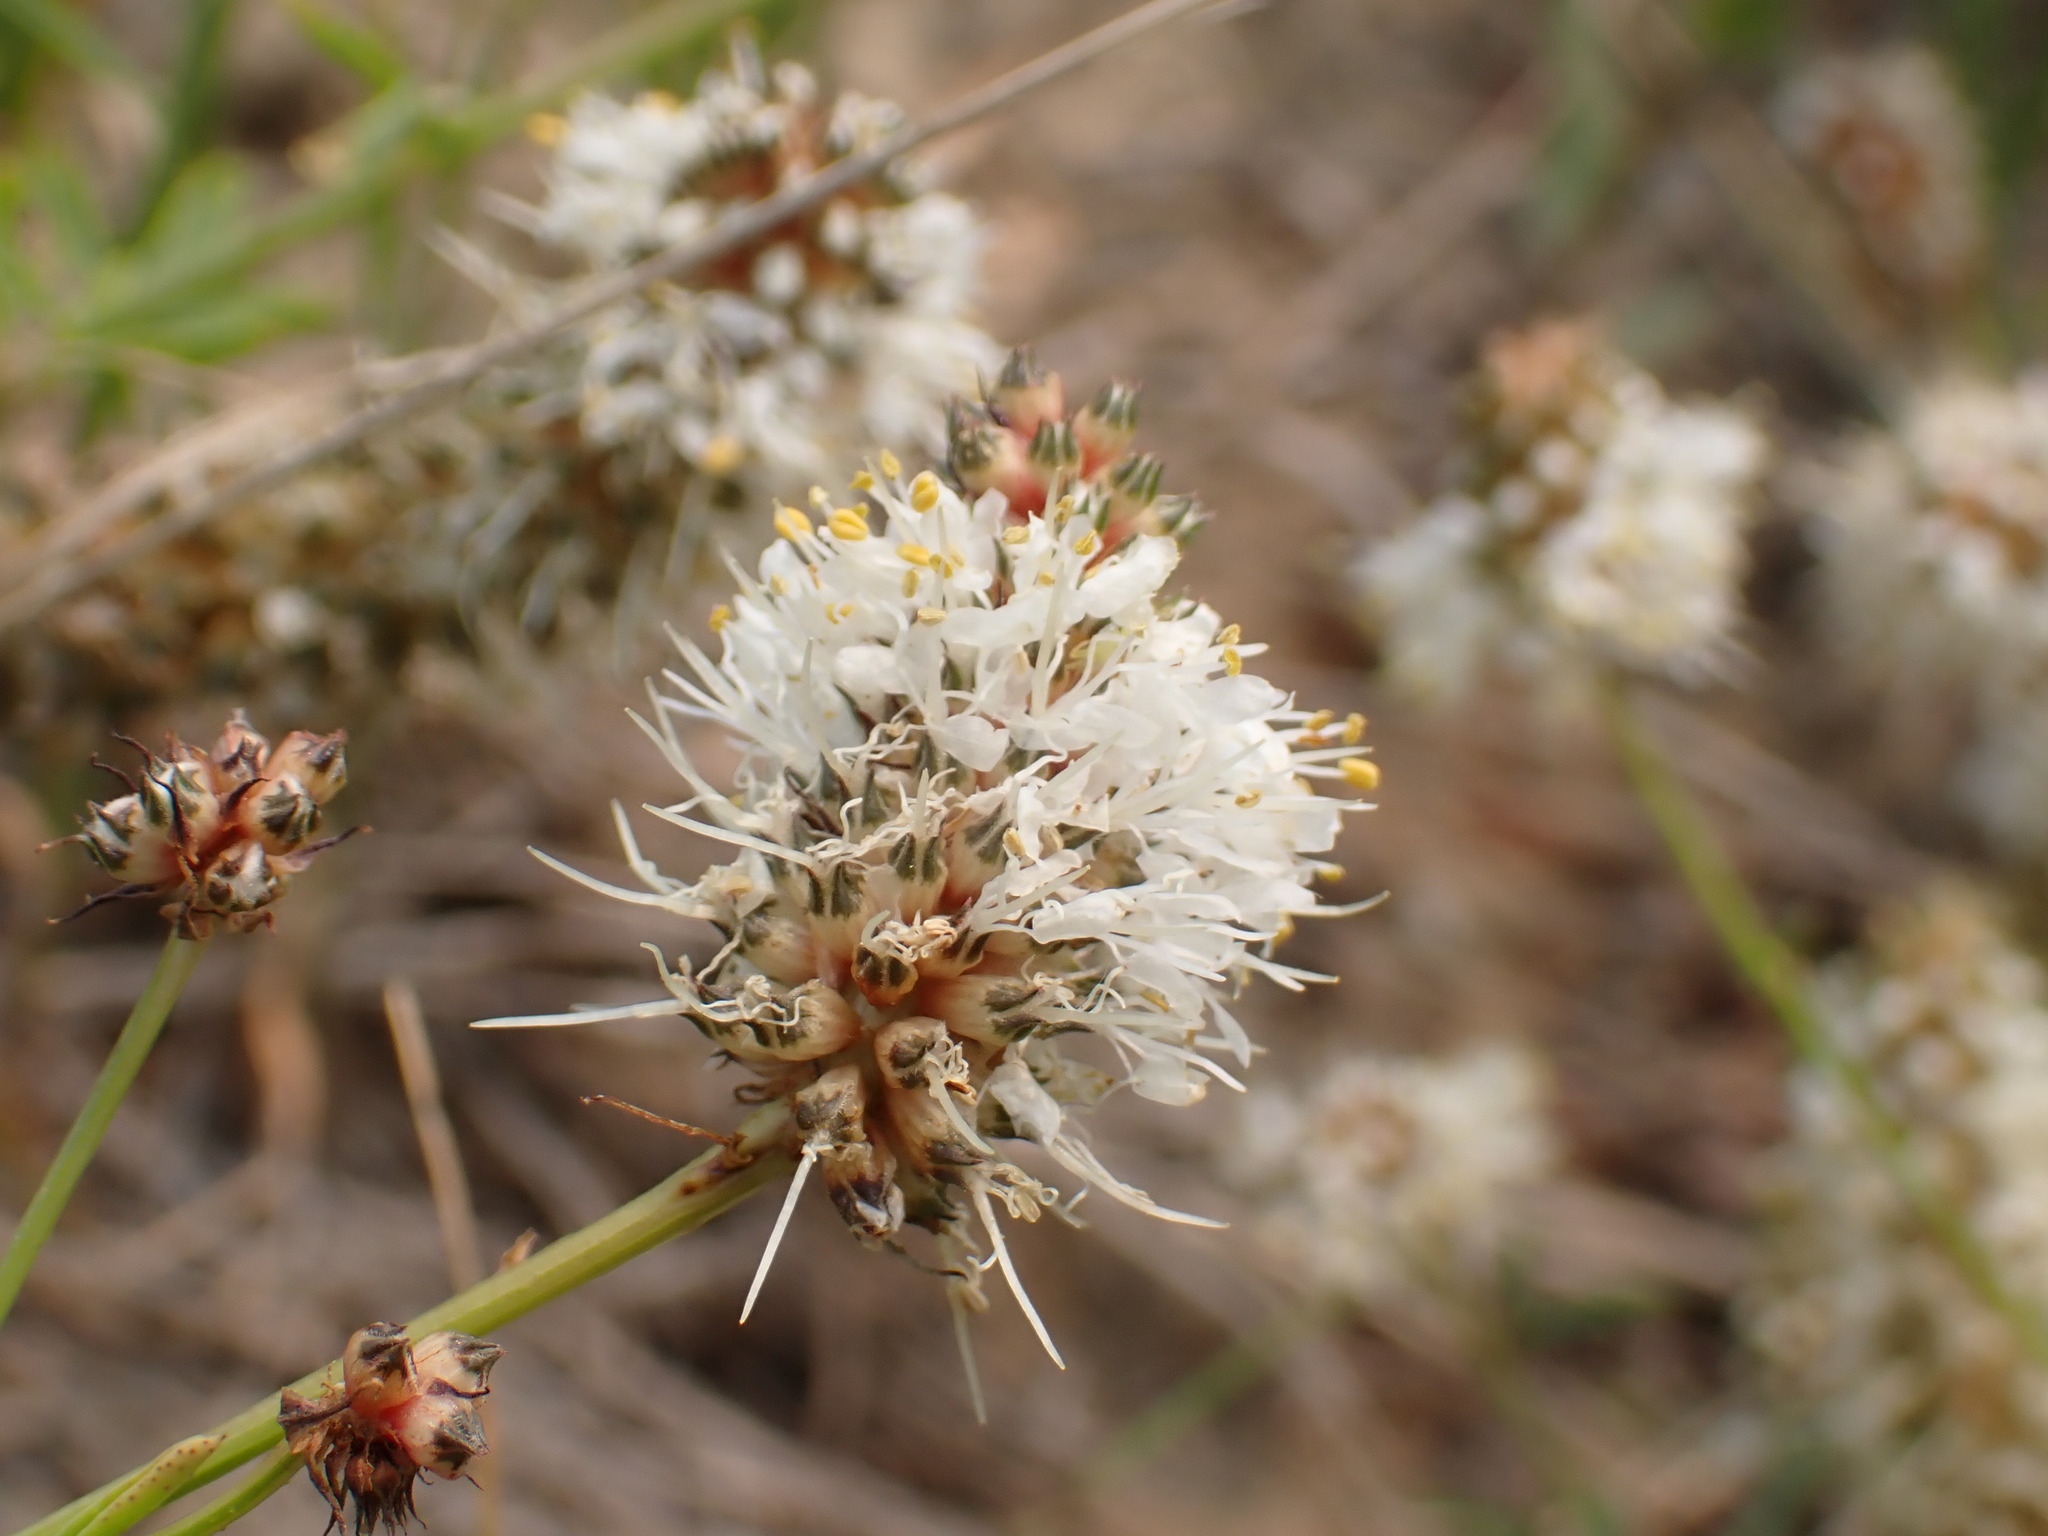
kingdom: Plantae
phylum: Tracheophyta
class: Magnoliopsida
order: Fabales
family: Fabaceae
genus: Dalea
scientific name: Dalea candida
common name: White prairie-clover
